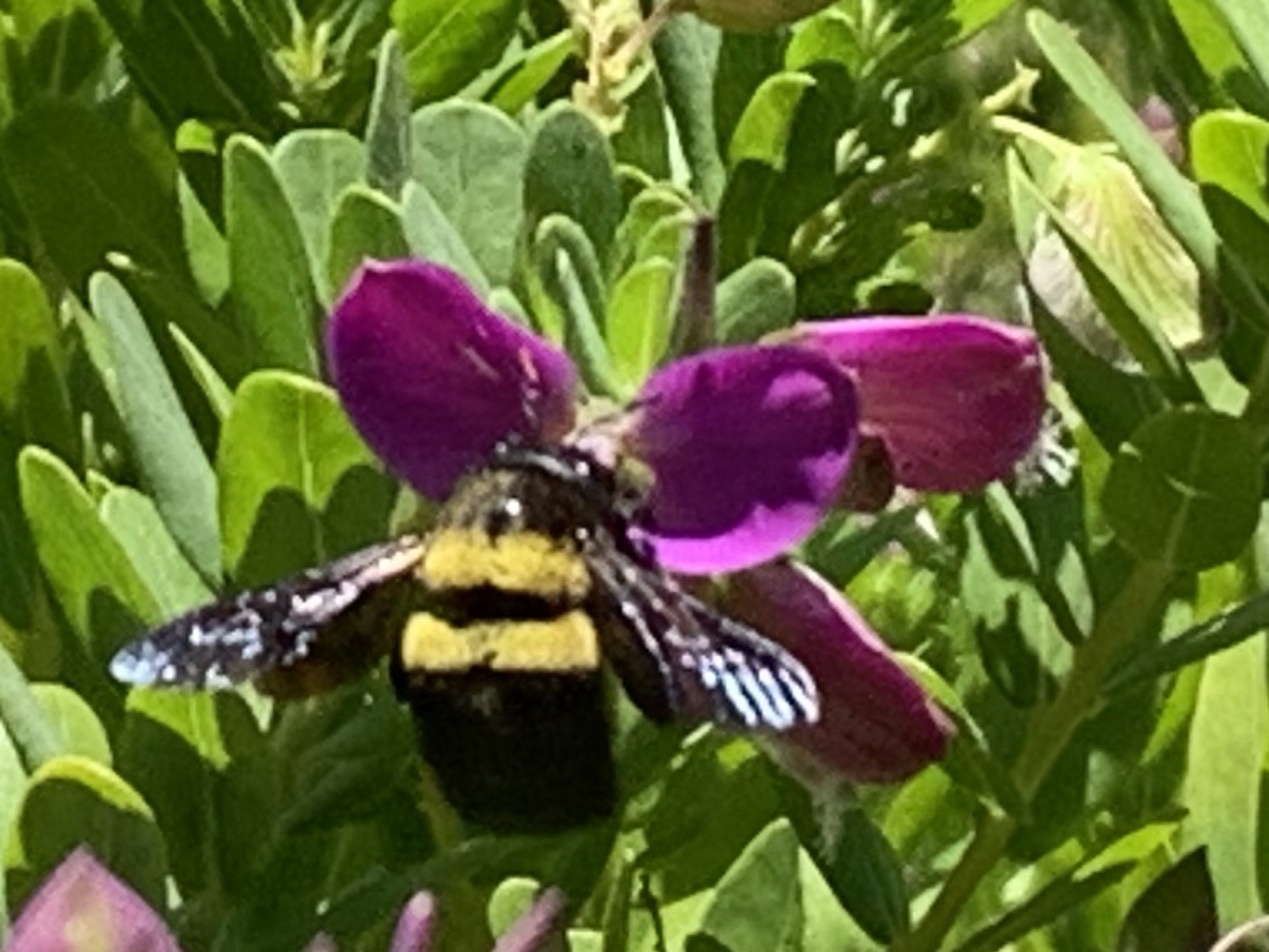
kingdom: Animalia
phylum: Arthropoda
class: Insecta
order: Hymenoptera
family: Apidae
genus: Xylocopa
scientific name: Xylocopa caffra
